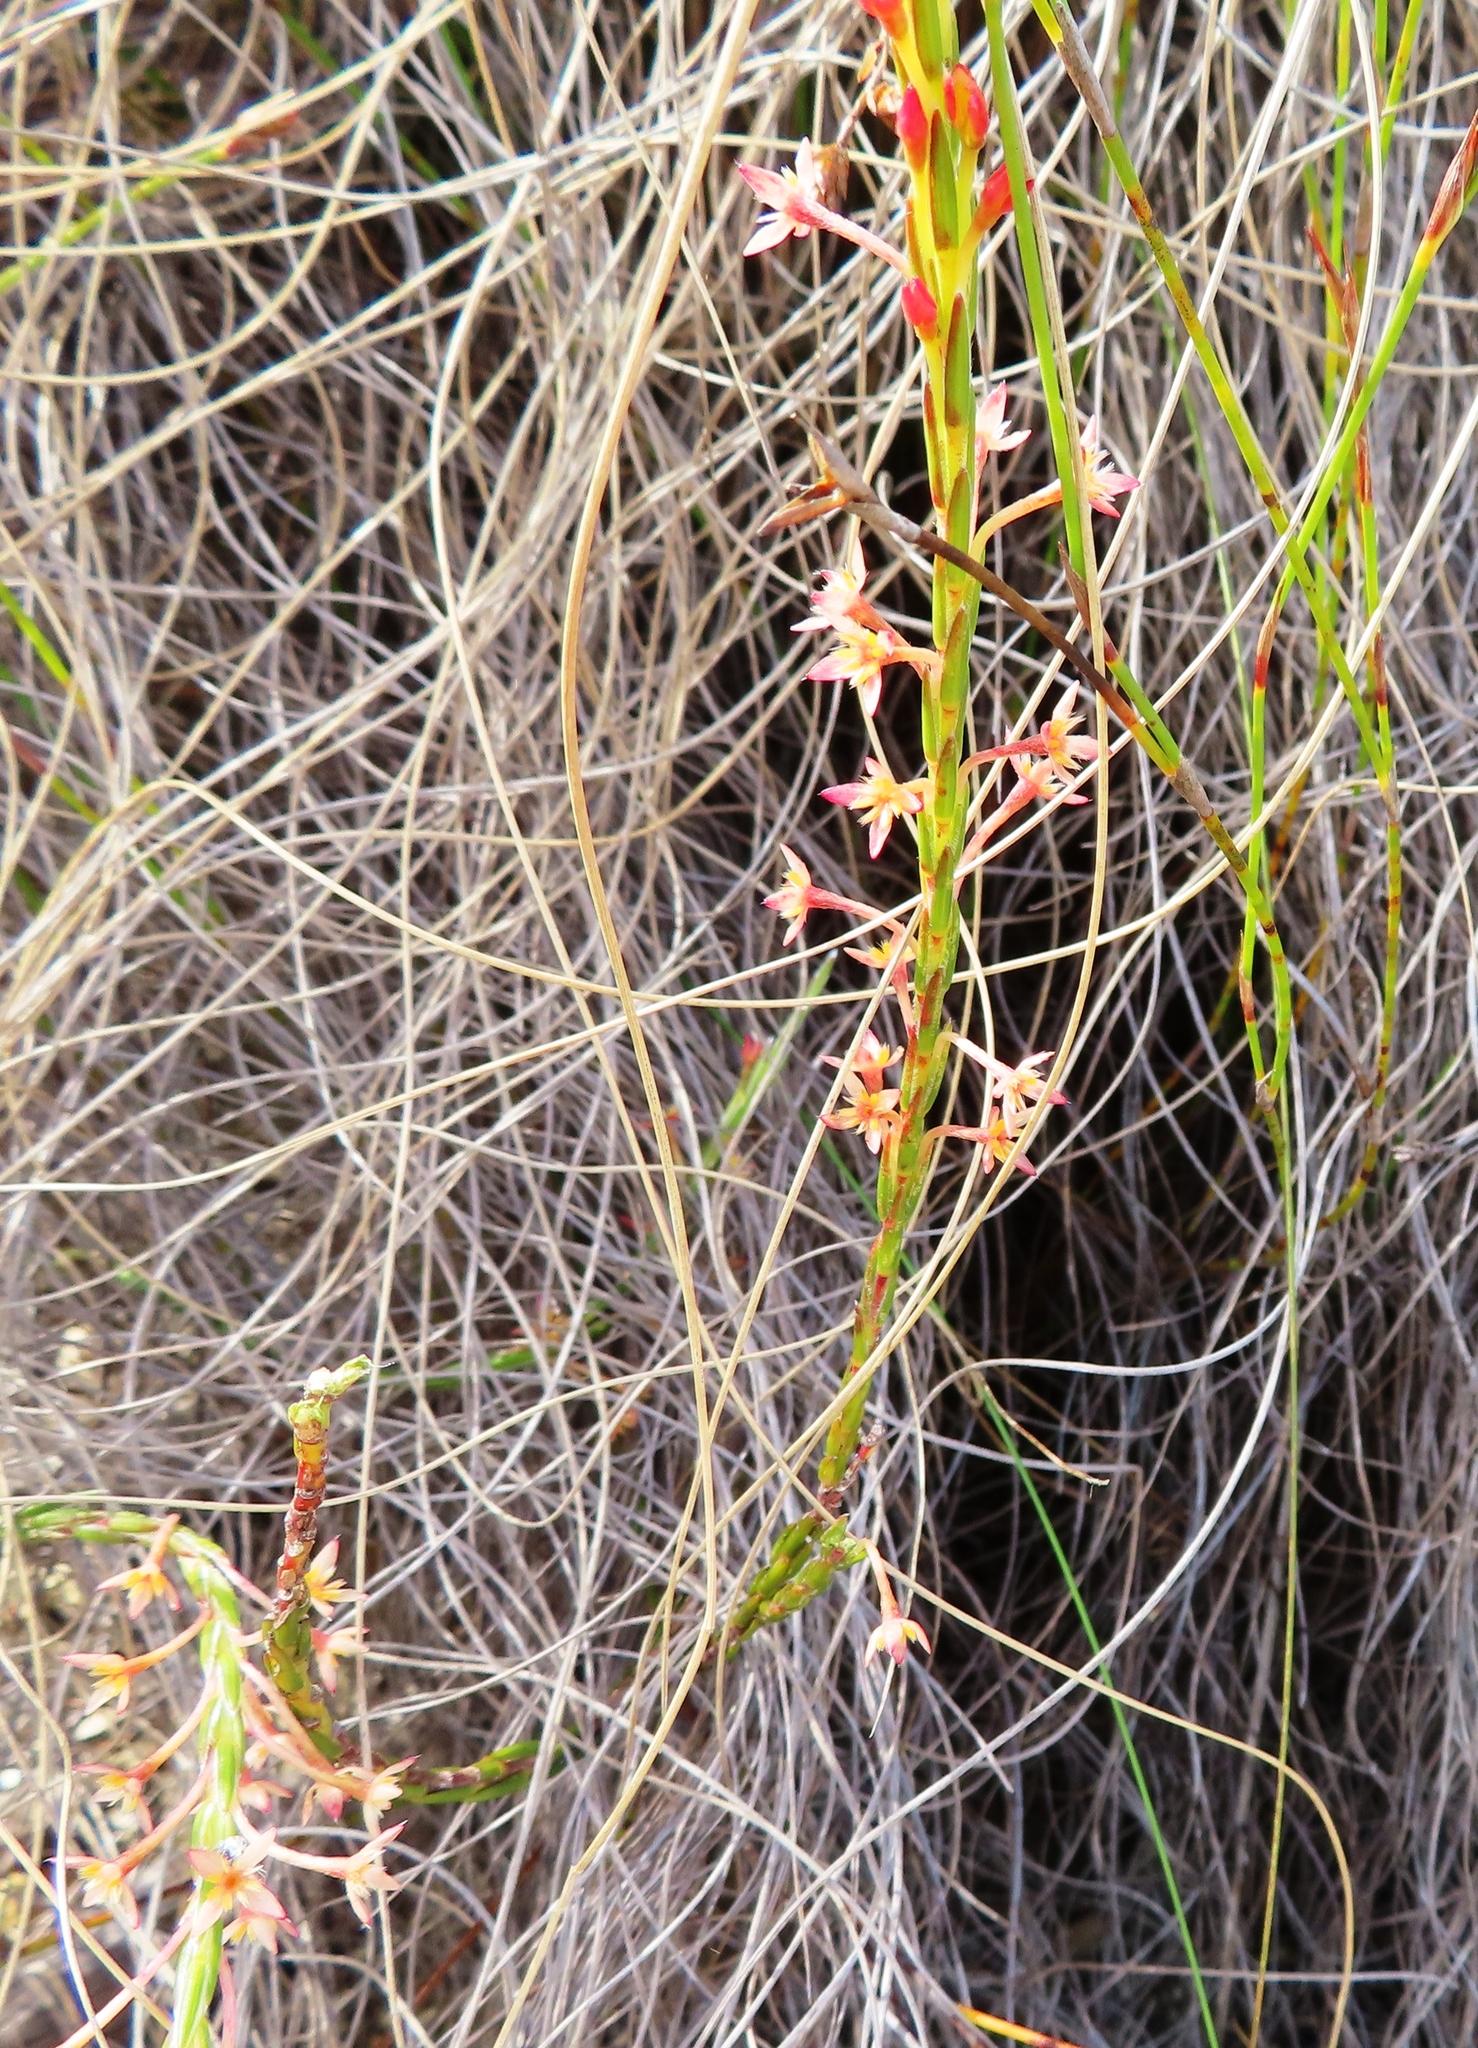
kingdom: Plantae
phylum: Tracheophyta
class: Magnoliopsida
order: Malvales
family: Thymelaeaceae
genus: Struthiola
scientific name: Struthiola ciliata
